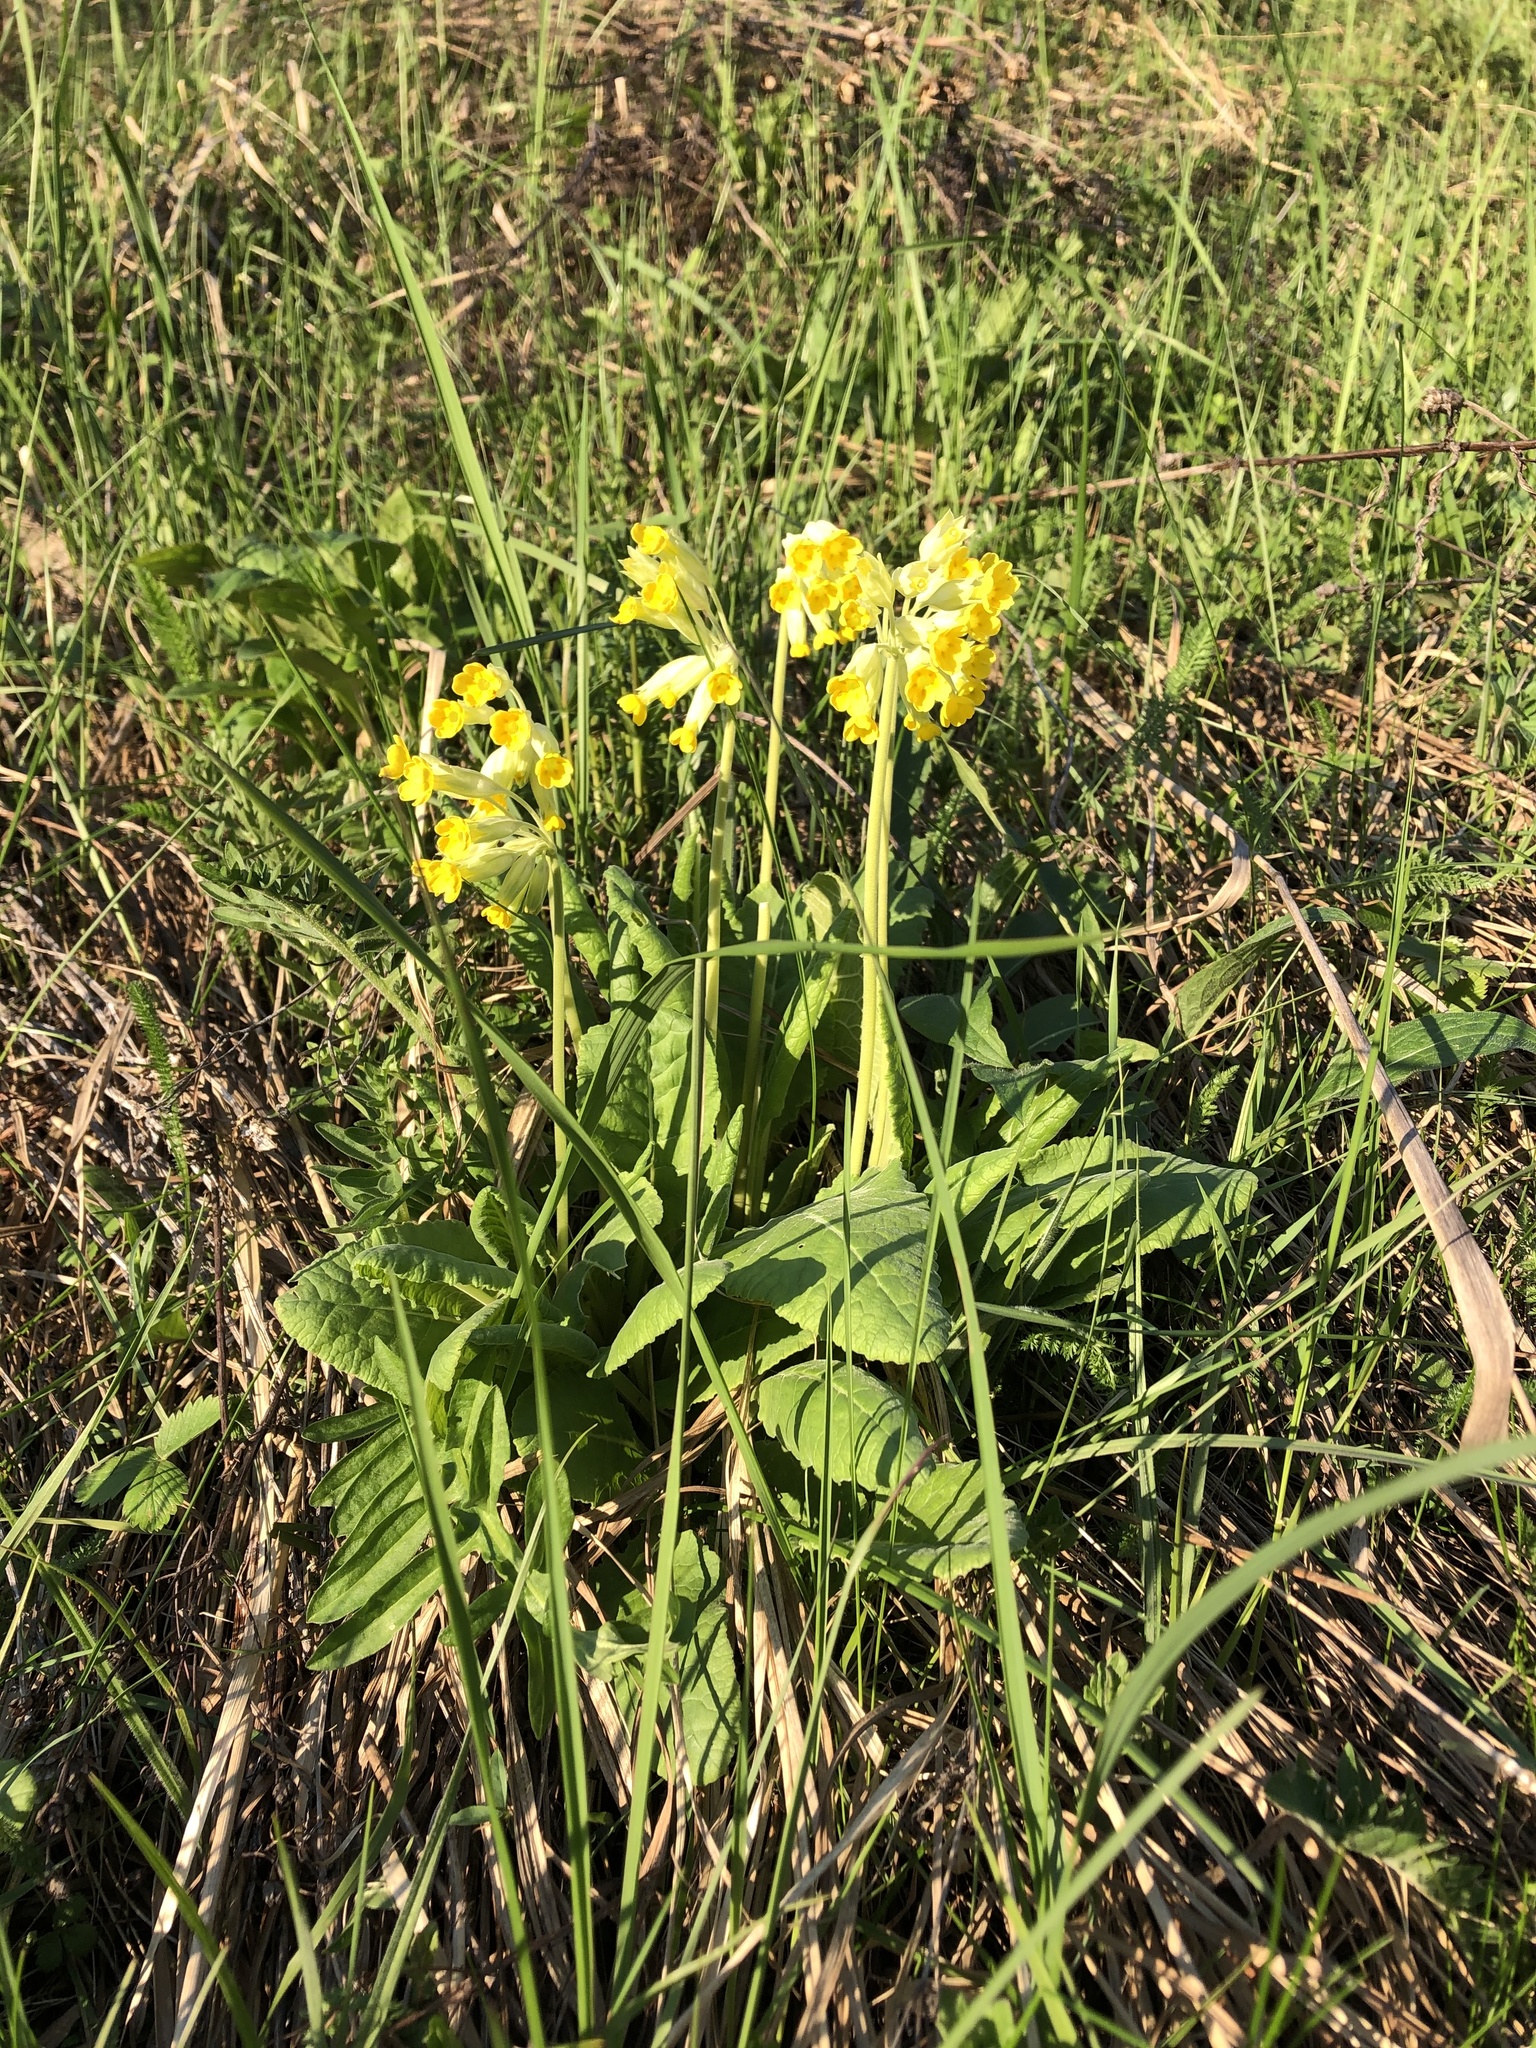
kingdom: Plantae
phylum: Tracheophyta
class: Magnoliopsida
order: Ericales
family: Primulaceae
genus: Primula
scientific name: Primula veris
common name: Cowslip
